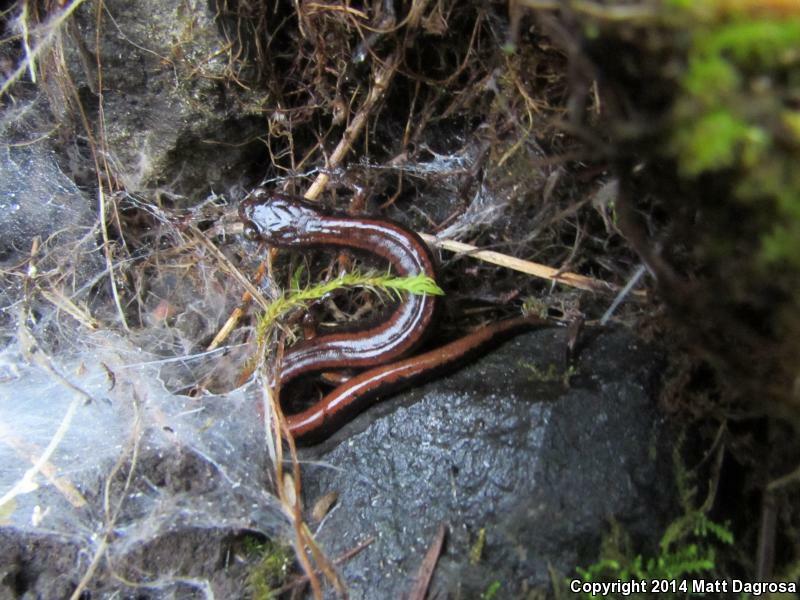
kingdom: Animalia
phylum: Chordata
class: Amphibia
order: Caudata
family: Plethodontidae
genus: Plethodon
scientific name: Plethodon vehiculum
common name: Western red-backed salamander
